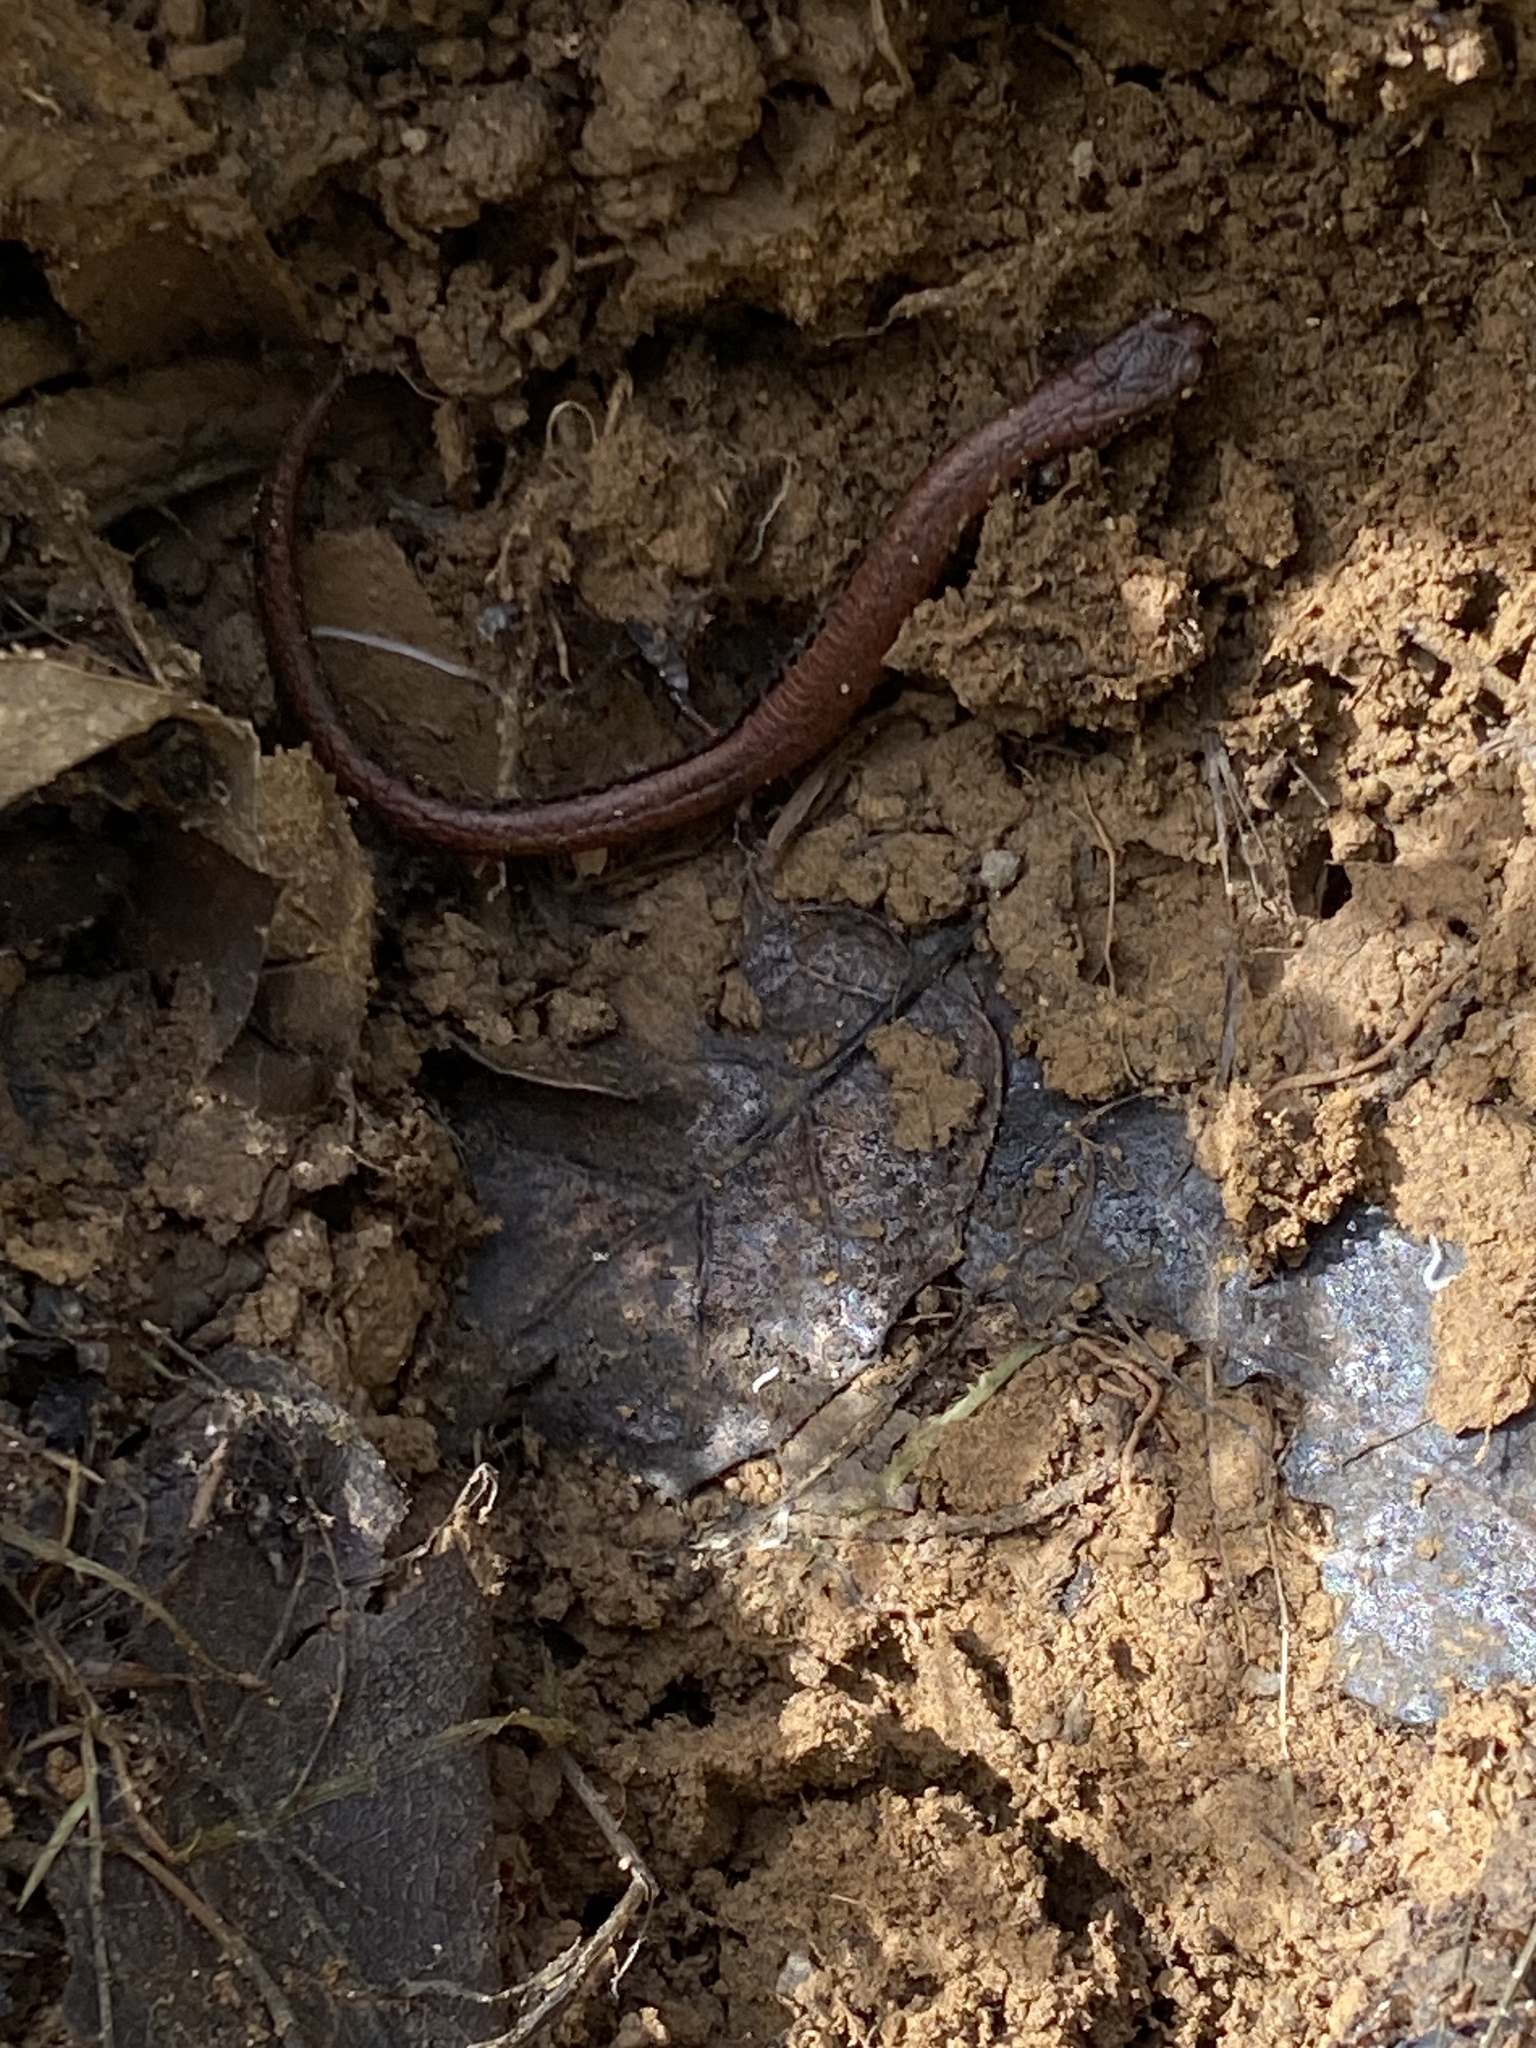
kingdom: Animalia
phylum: Chordata
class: Amphibia
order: Caudata
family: Plethodontidae
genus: Batrachoseps
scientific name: Batrachoseps attenuatus
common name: California slender salamander
